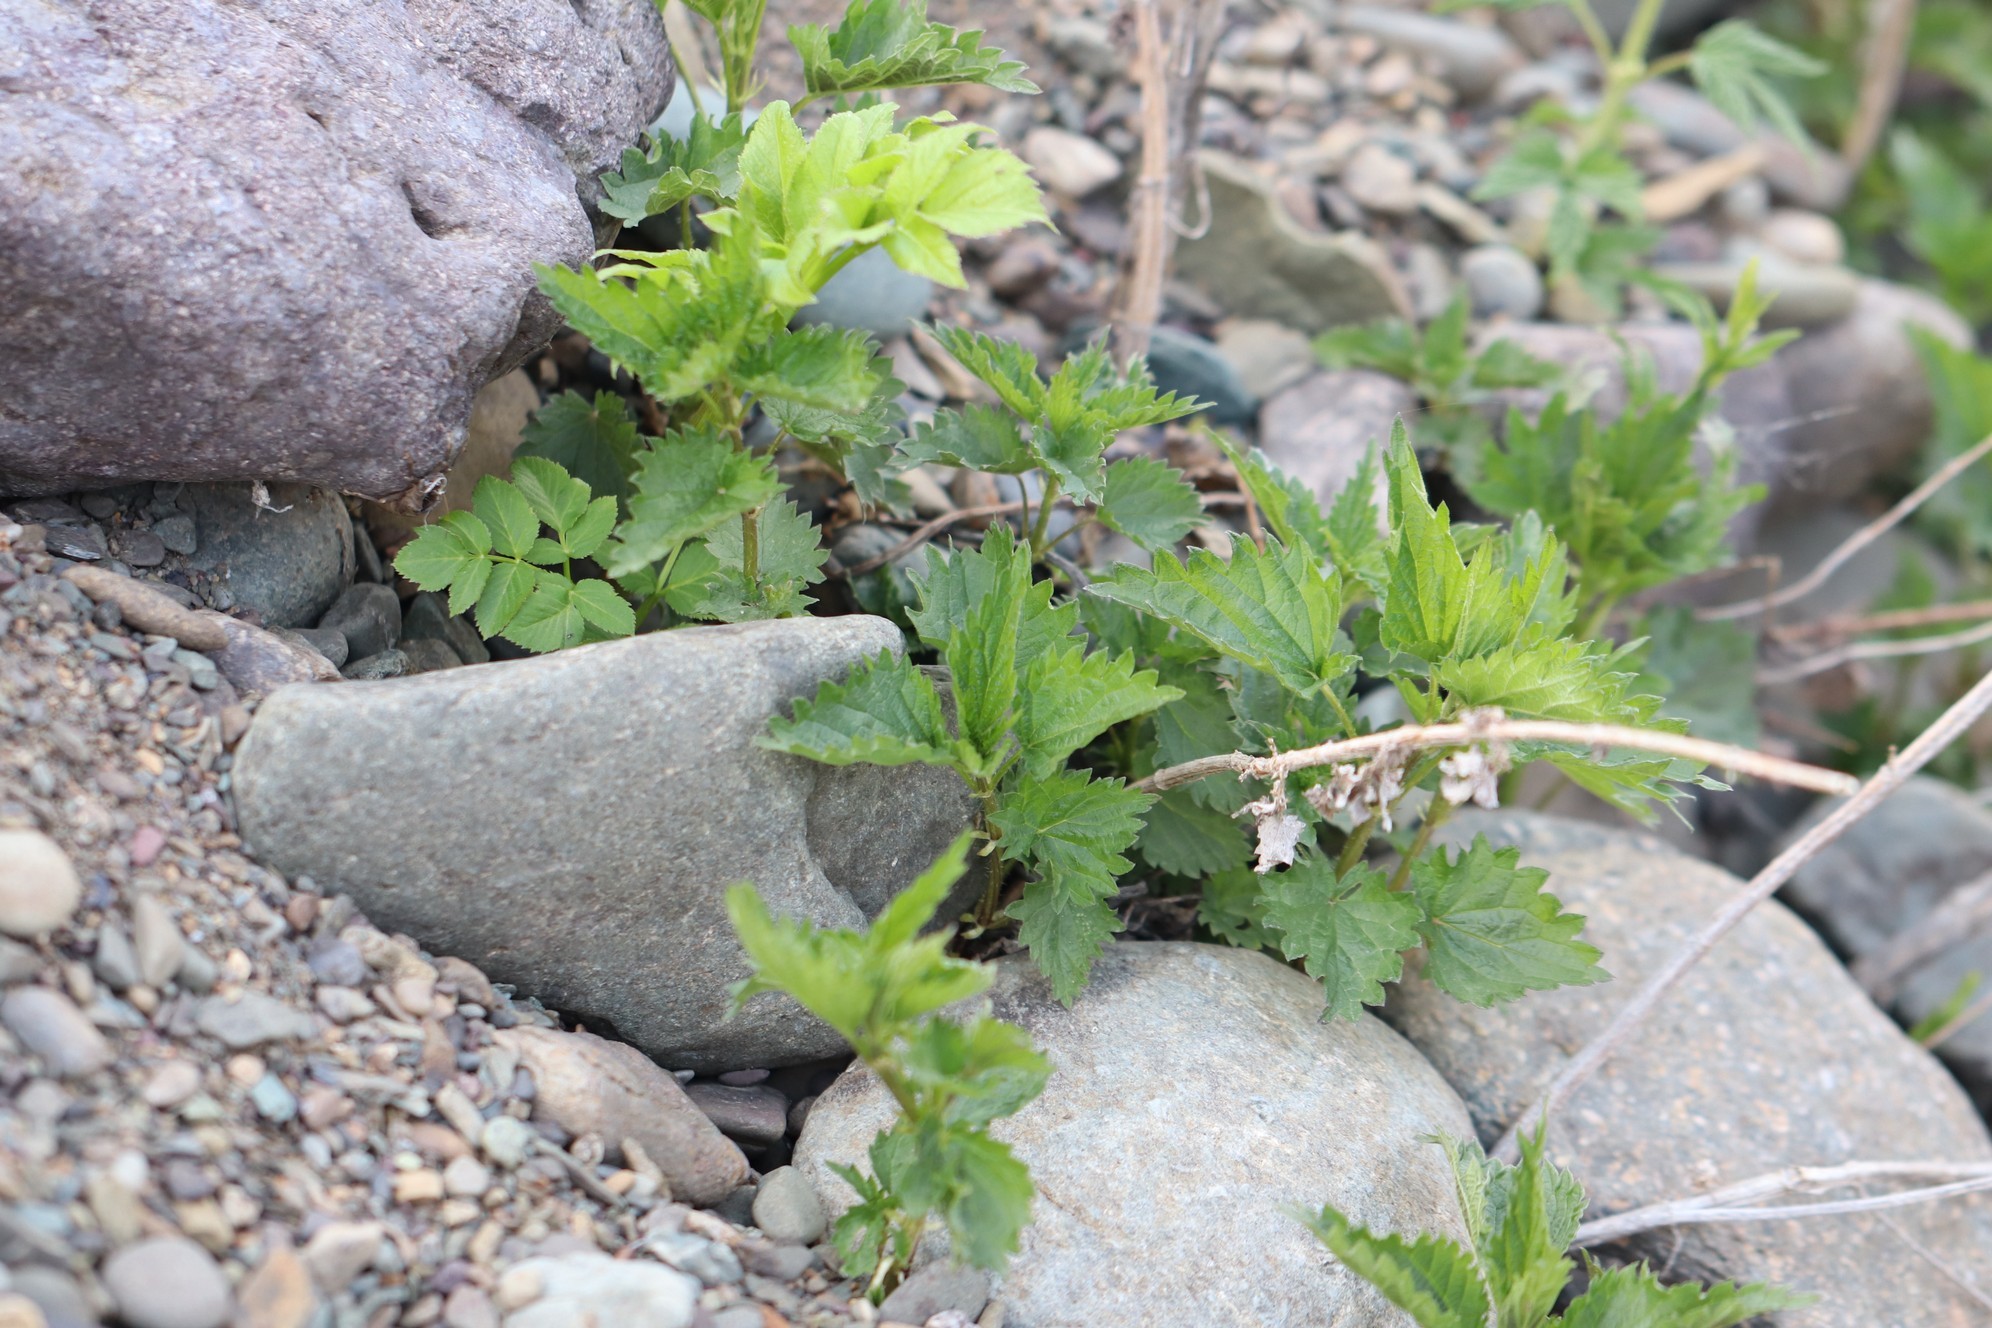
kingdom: Plantae
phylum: Tracheophyta
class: Magnoliopsida
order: Rosales
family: Urticaceae
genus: Urtica
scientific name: Urtica dioica
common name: Common nettle
